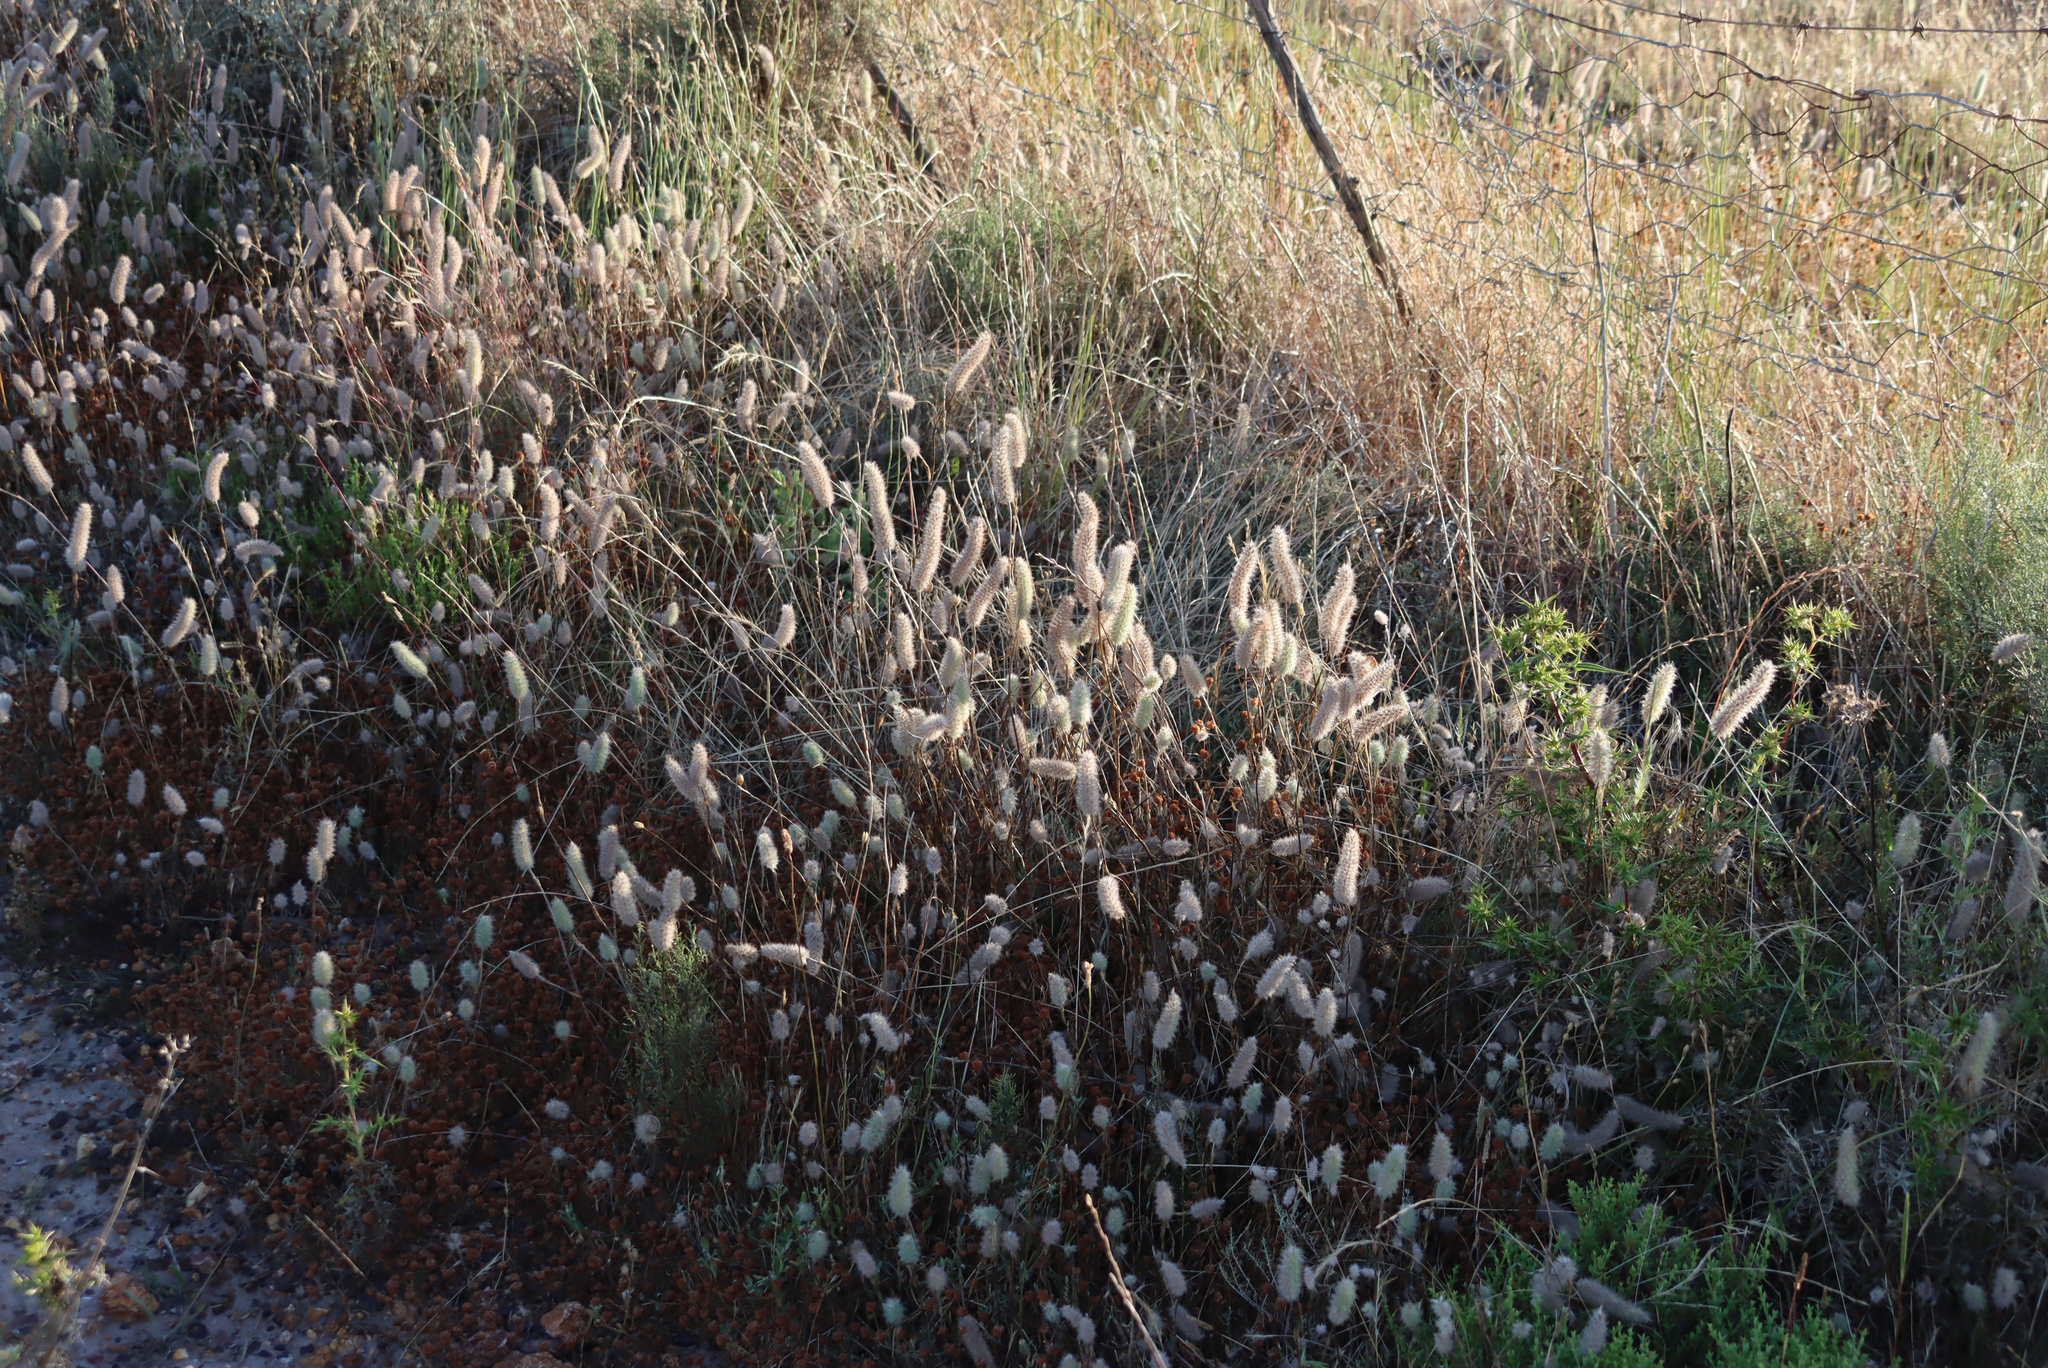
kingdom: Plantae
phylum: Tracheophyta
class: Magnoliopsida
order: Fabales
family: Fabaceae
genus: Trifolium
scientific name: Trifolium angustifolium
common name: Narrow clover
